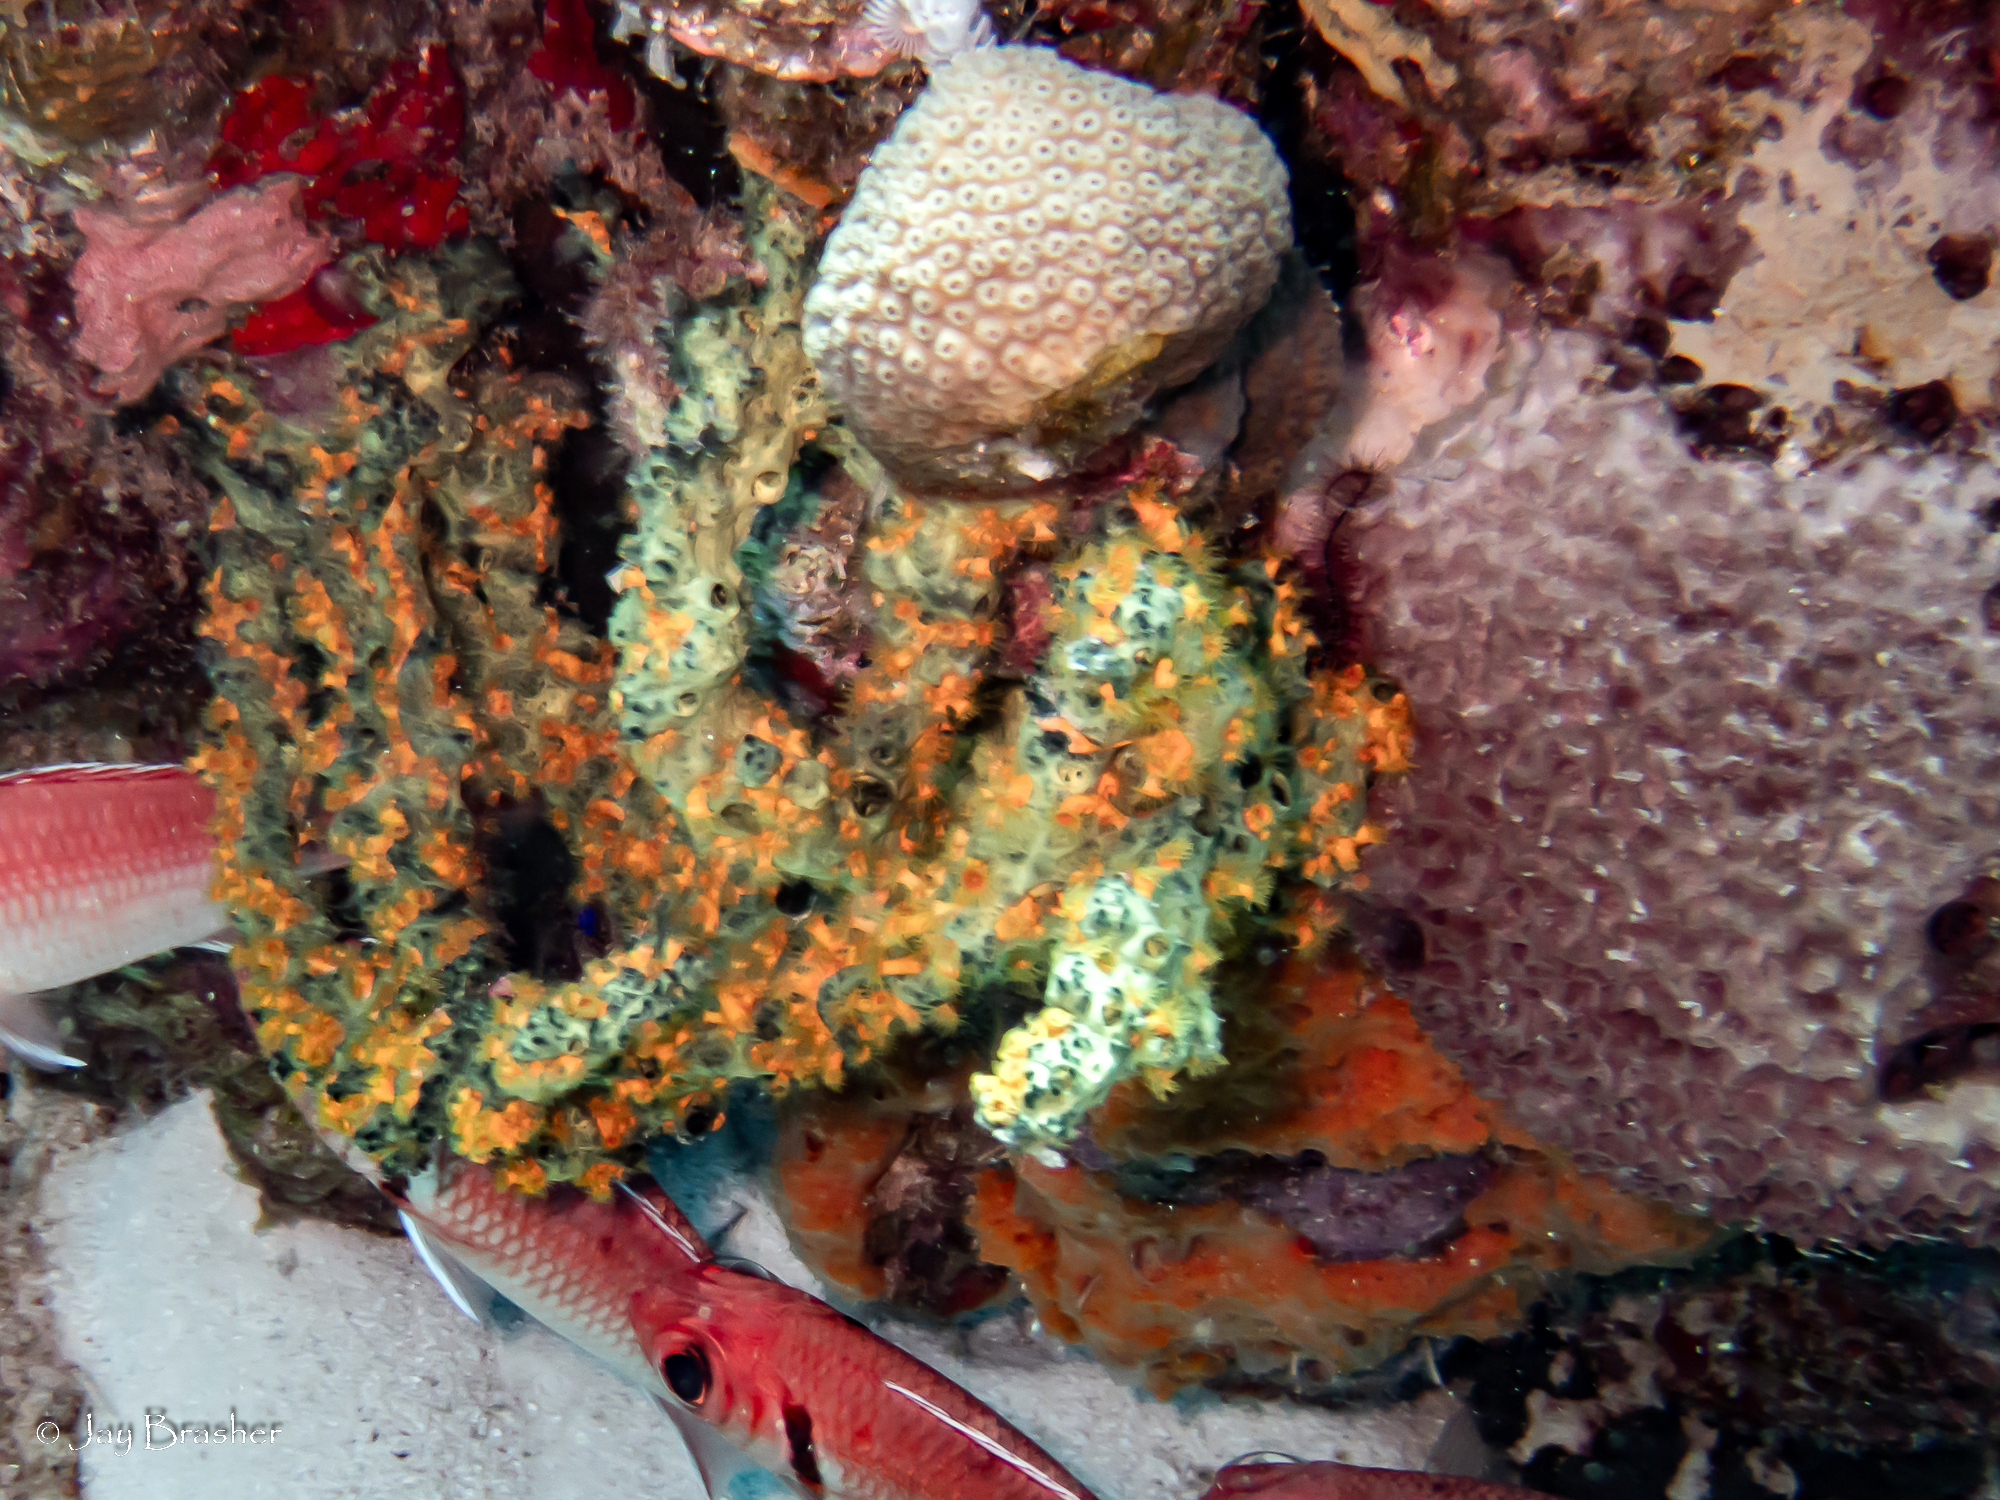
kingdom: Animalia
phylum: Porifera
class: Demospongiae
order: Dictyoceratida
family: Irciniidae
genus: Ircinia
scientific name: Ircinia felix
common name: Stinker sponge
